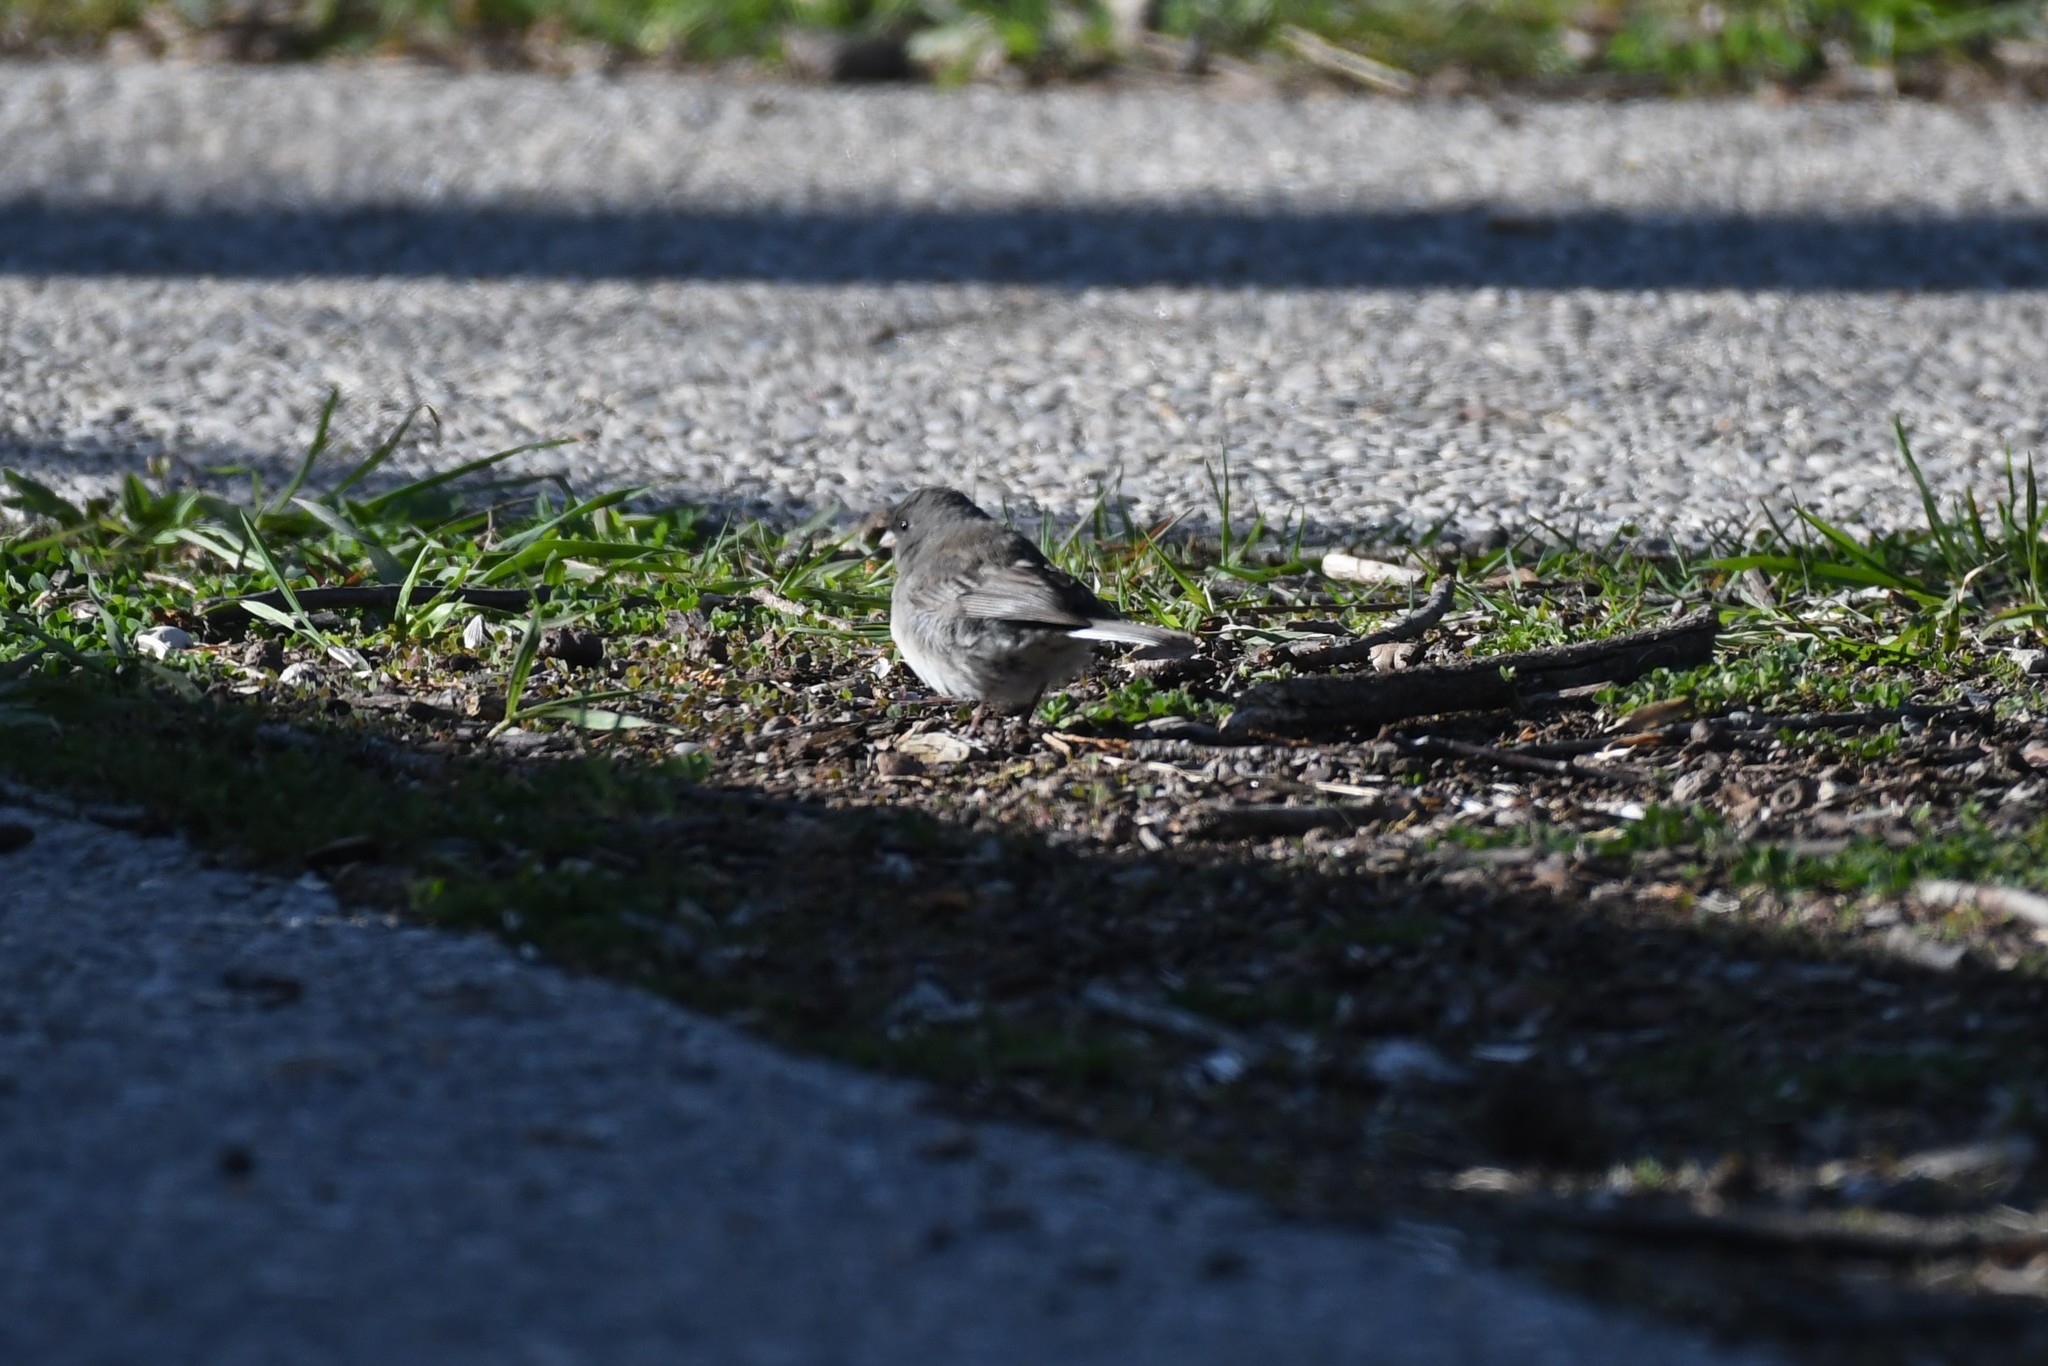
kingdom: Animalia
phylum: Chordata
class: Aves
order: Passeriformes
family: Passerellidae
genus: Junco
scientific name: Junco hyemalis
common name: Dark-eyed junco
